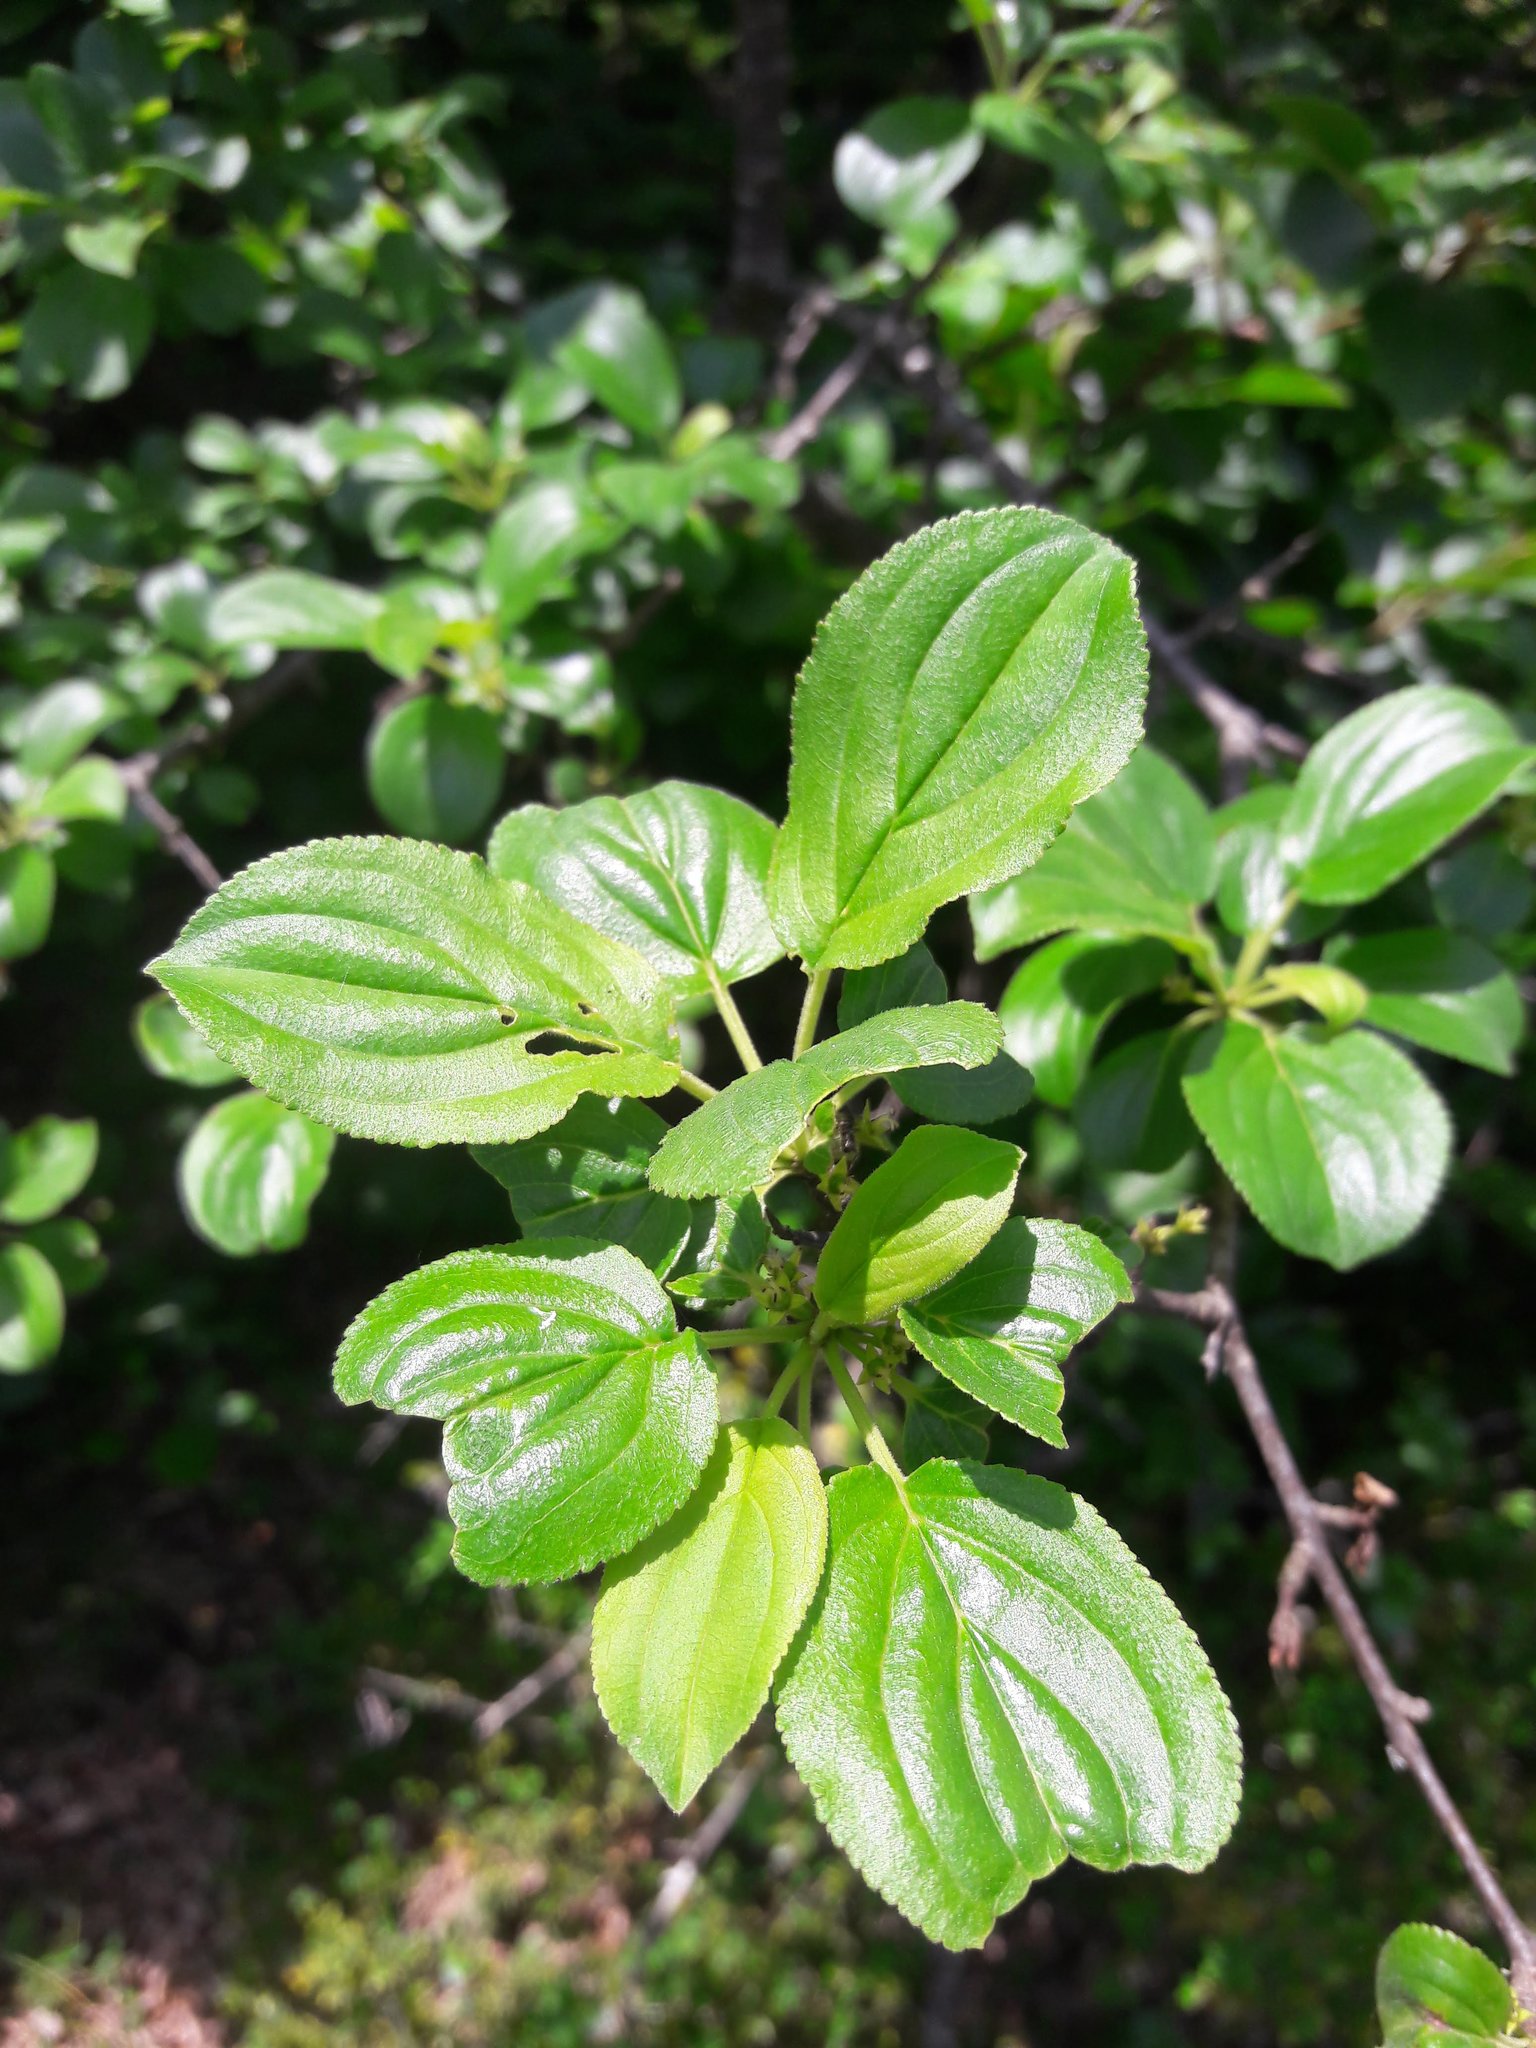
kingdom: Plantae
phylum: Tracheophyta
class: Magnoliopsida
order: Rosales
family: Rhamnaceae
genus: Rhamnus
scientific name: Rhamnus cathartica
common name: Common buckthorn
